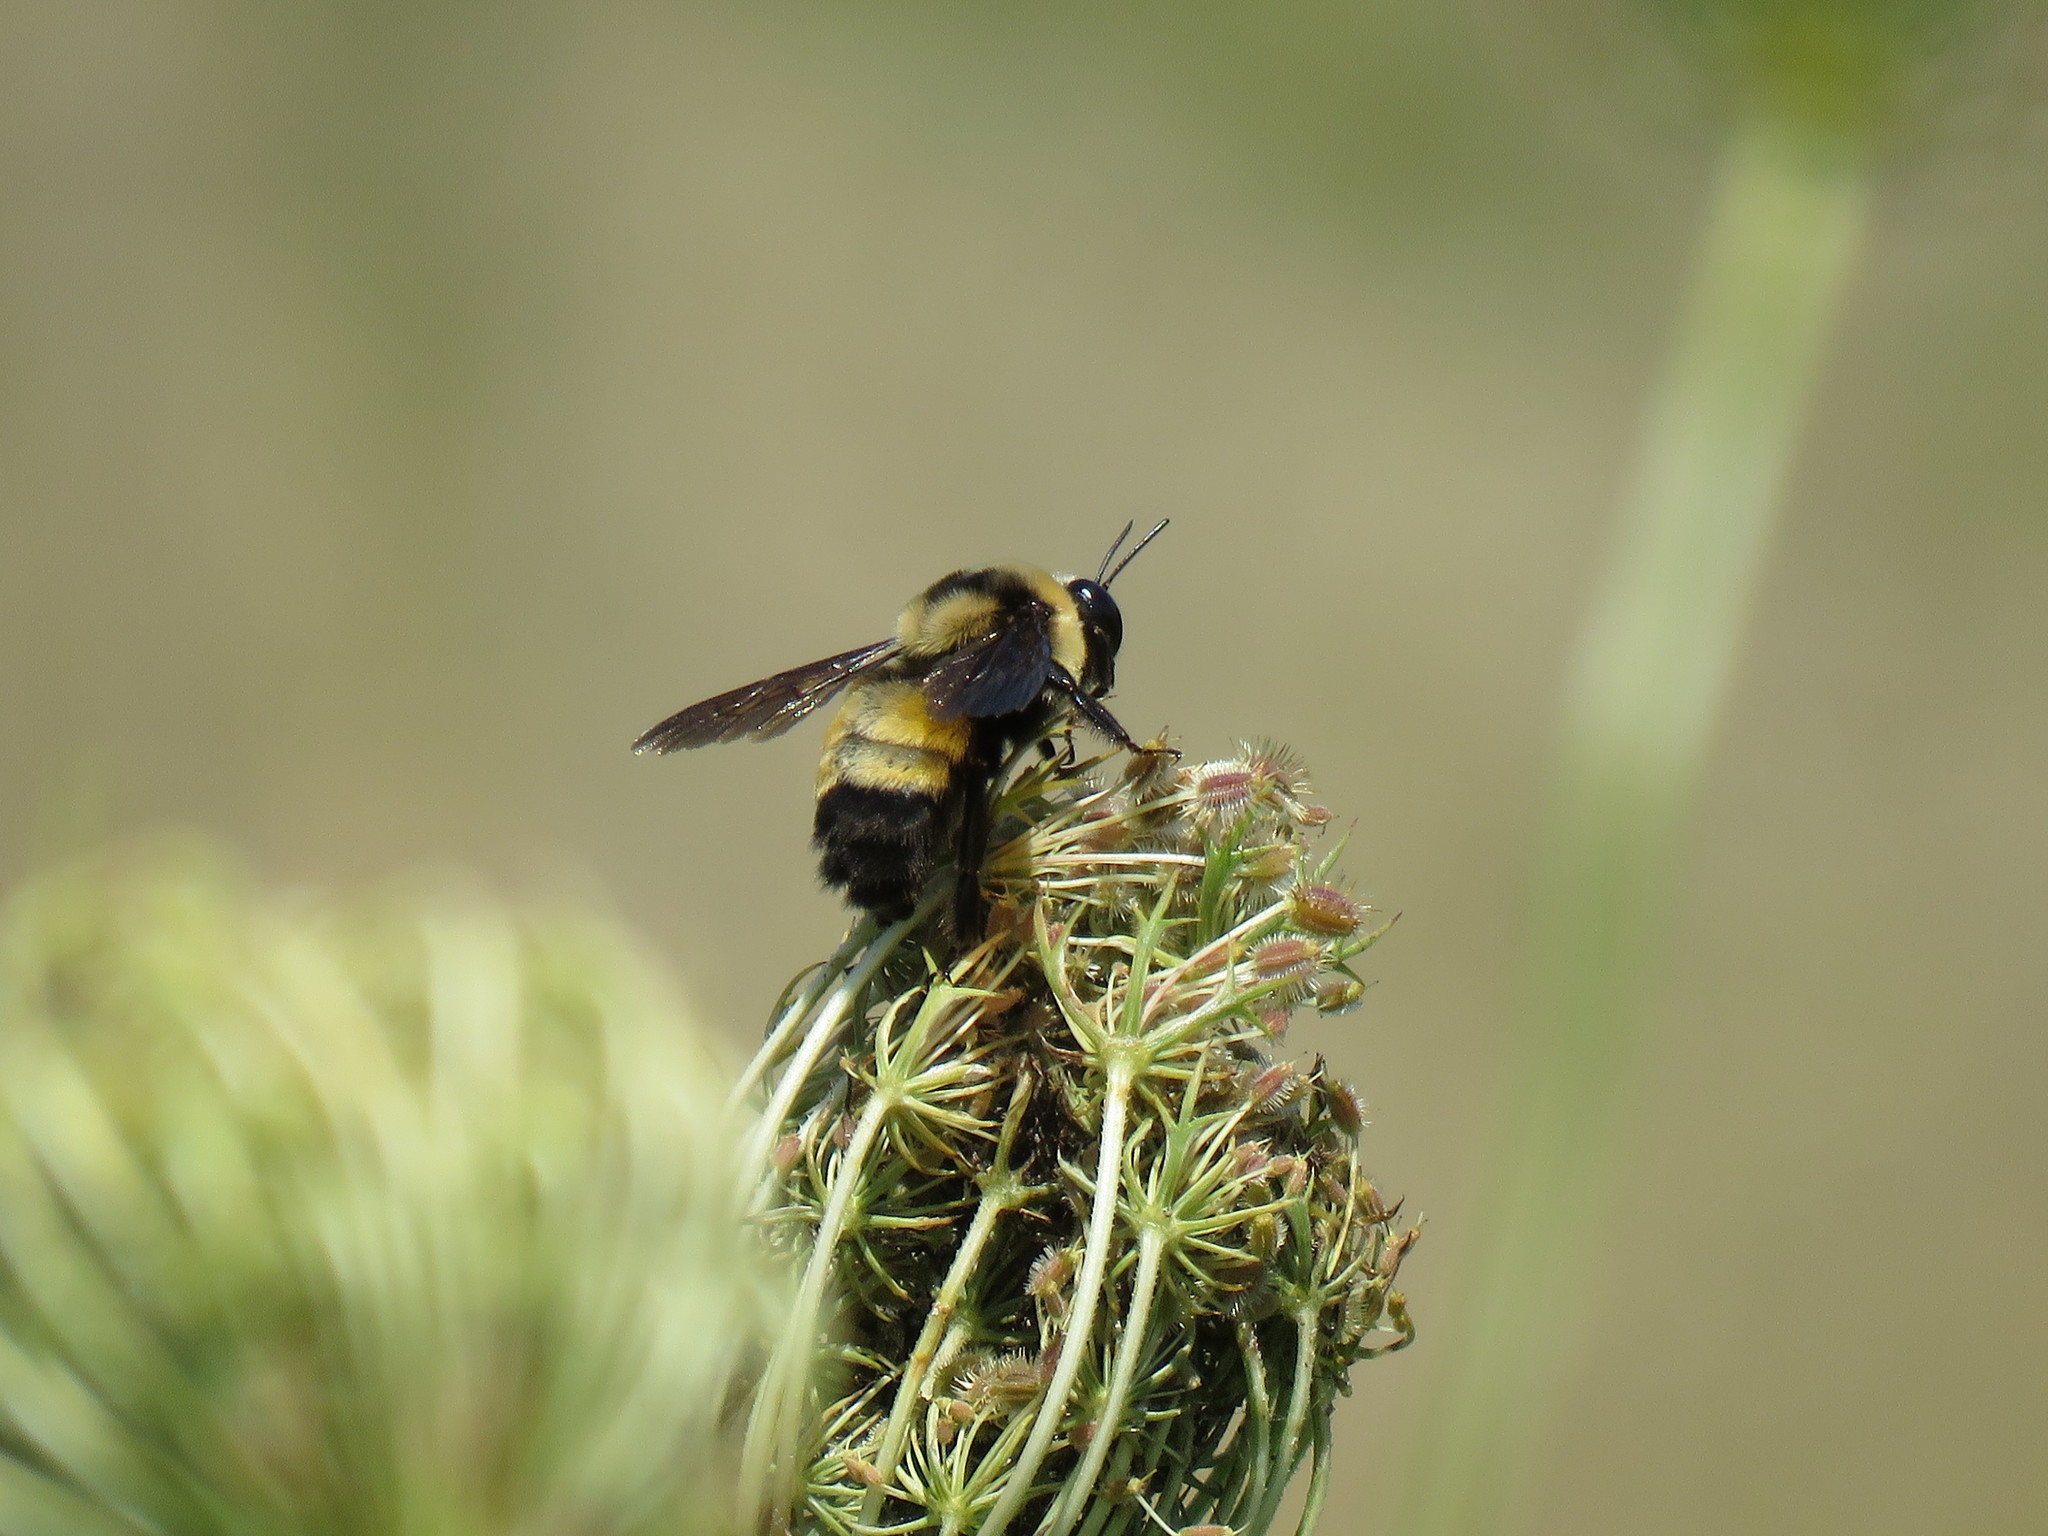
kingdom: Animalia
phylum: Arthropoda
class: Insecta
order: Hymenoptera
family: Apidae
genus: Bombus
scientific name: Bombus auricomus
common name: Black and gold bumble bee
